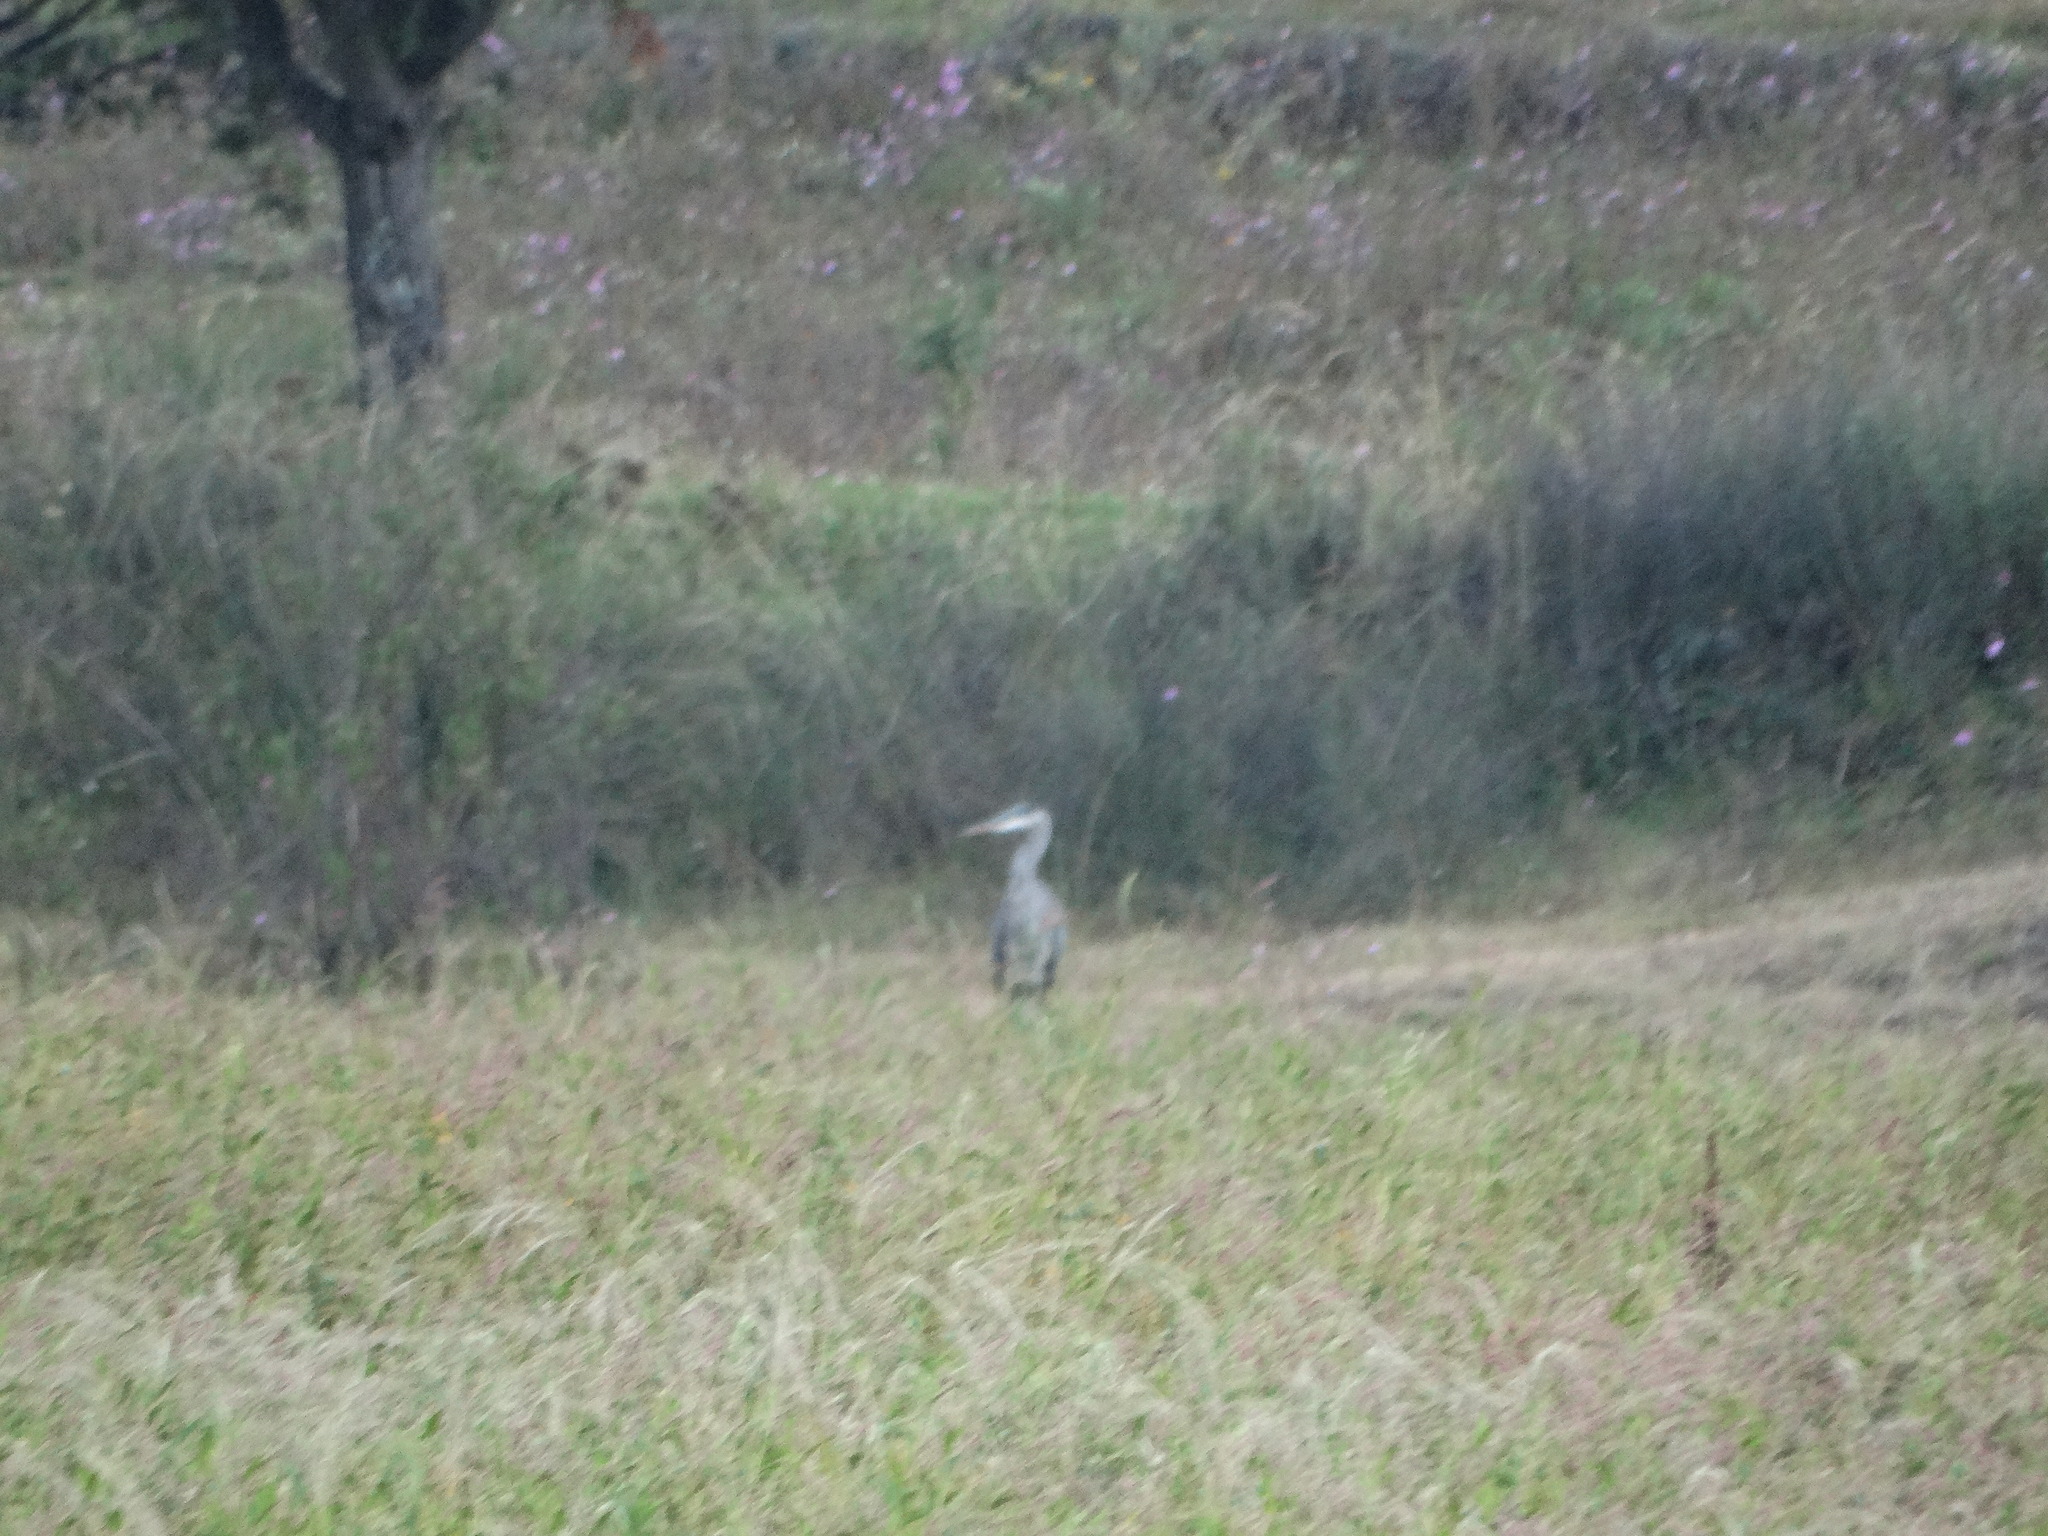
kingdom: Animalia
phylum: Chordata
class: Aves
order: Pelecaniformes
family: Ardeidae
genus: Ardea
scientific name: Ardea herodias
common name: Great blue heron
